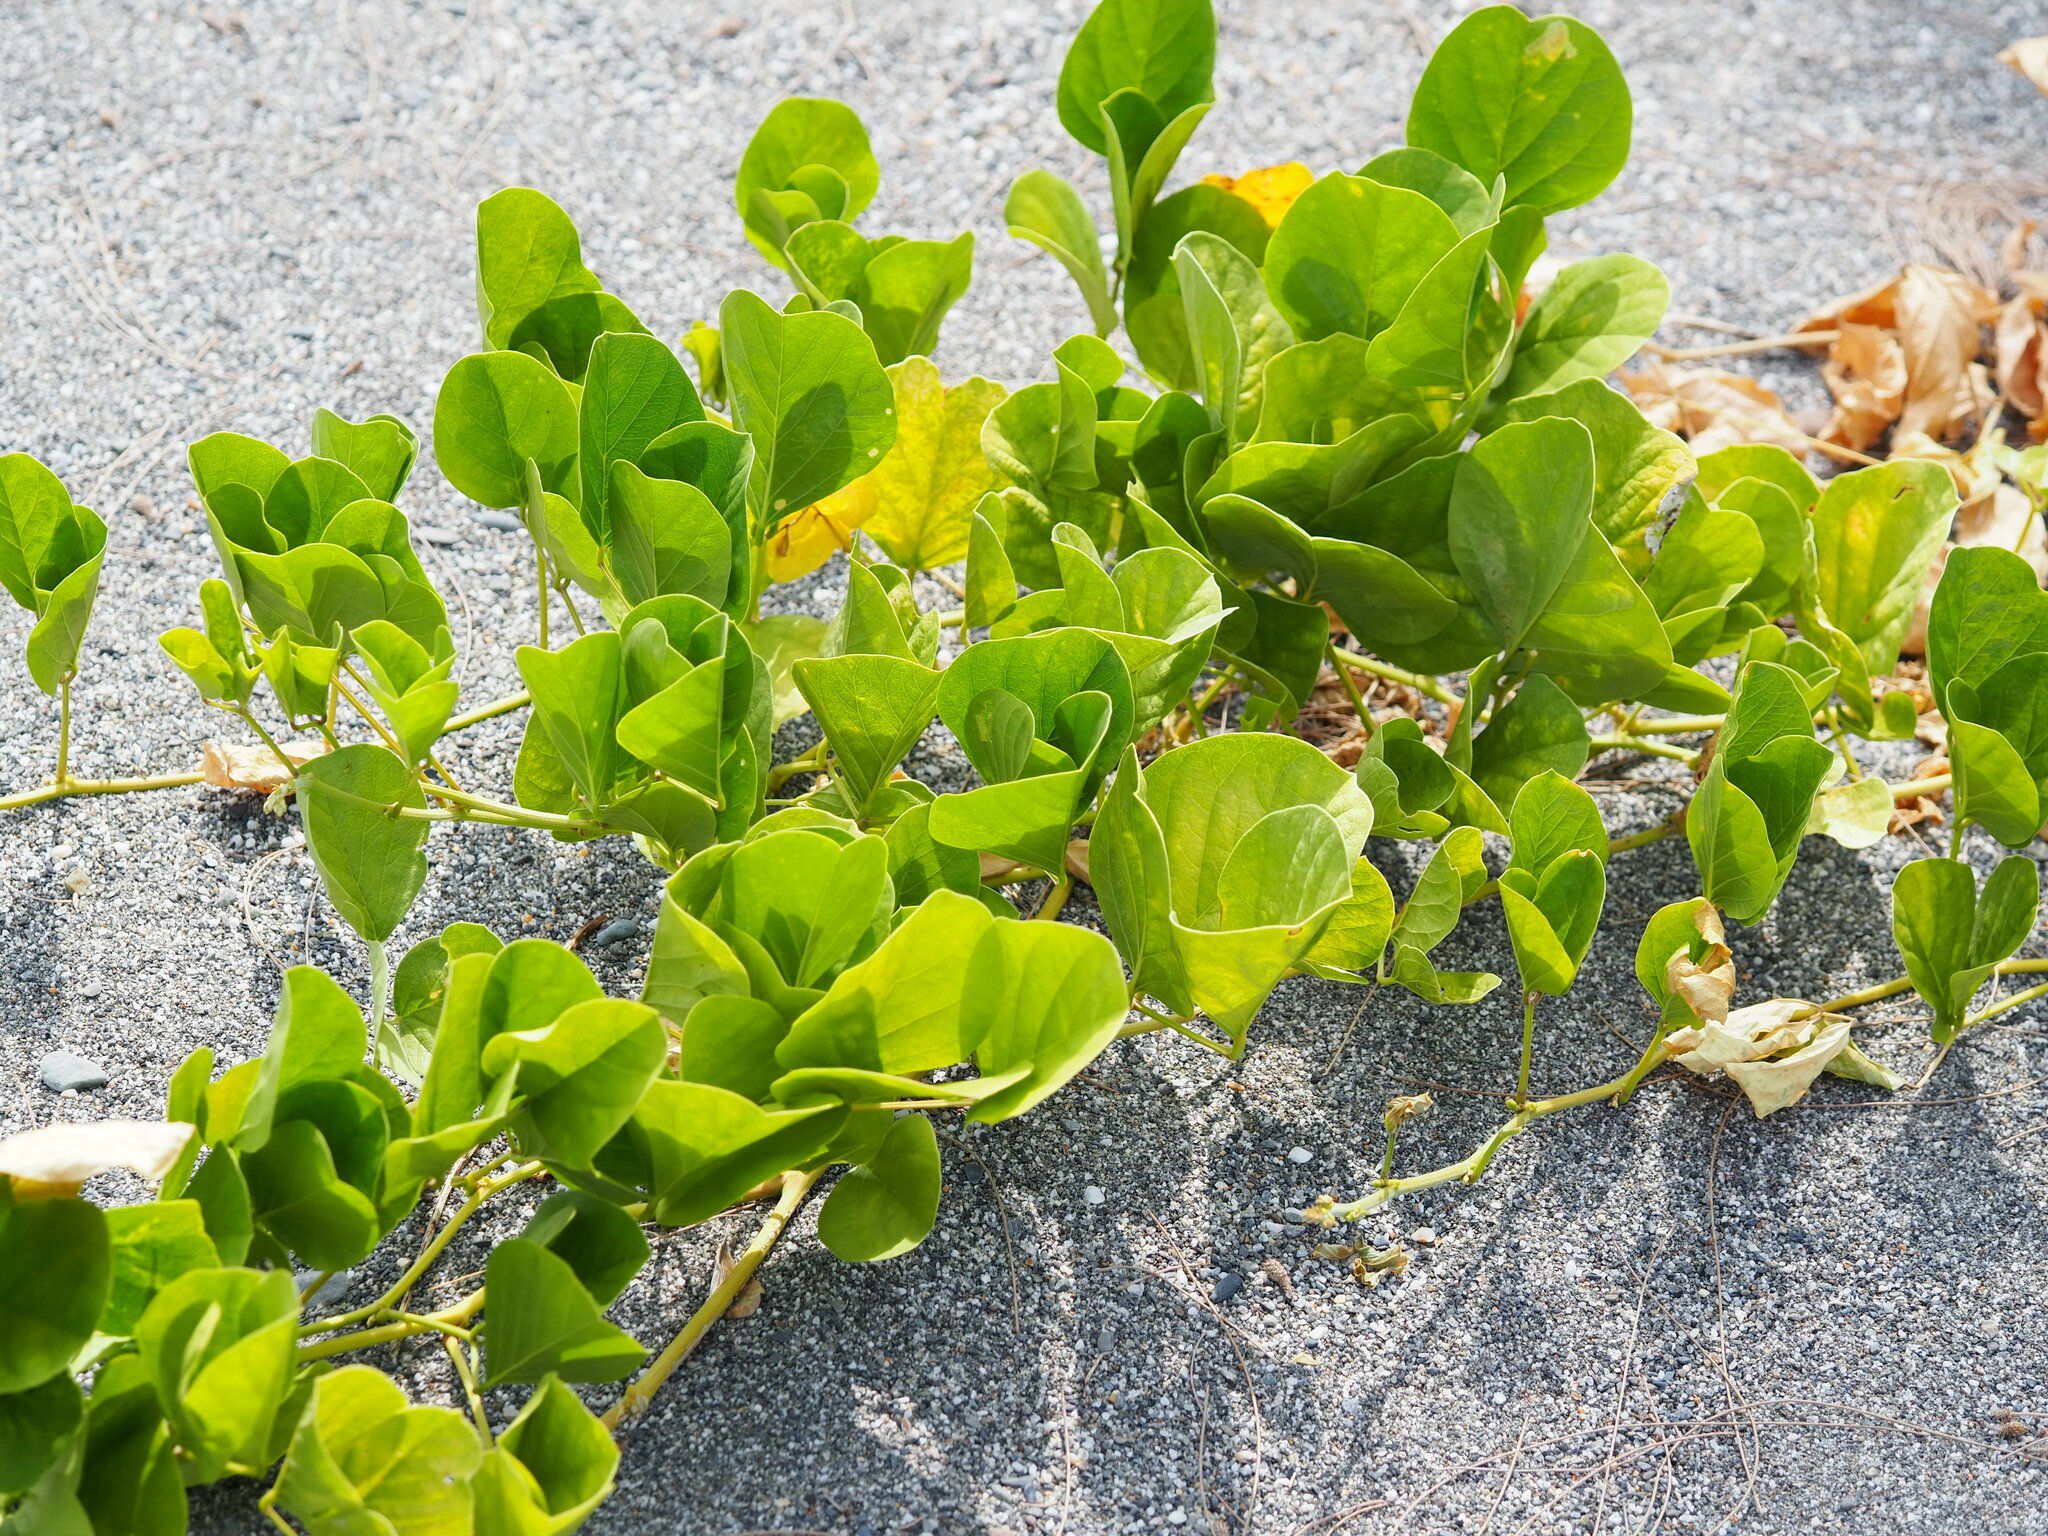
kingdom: Plantae
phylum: Tracheophyta
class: Magnoliopsida
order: Fabales
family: Fabaceae
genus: Canavalia
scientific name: Canavalia rosea
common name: Beach-bean
